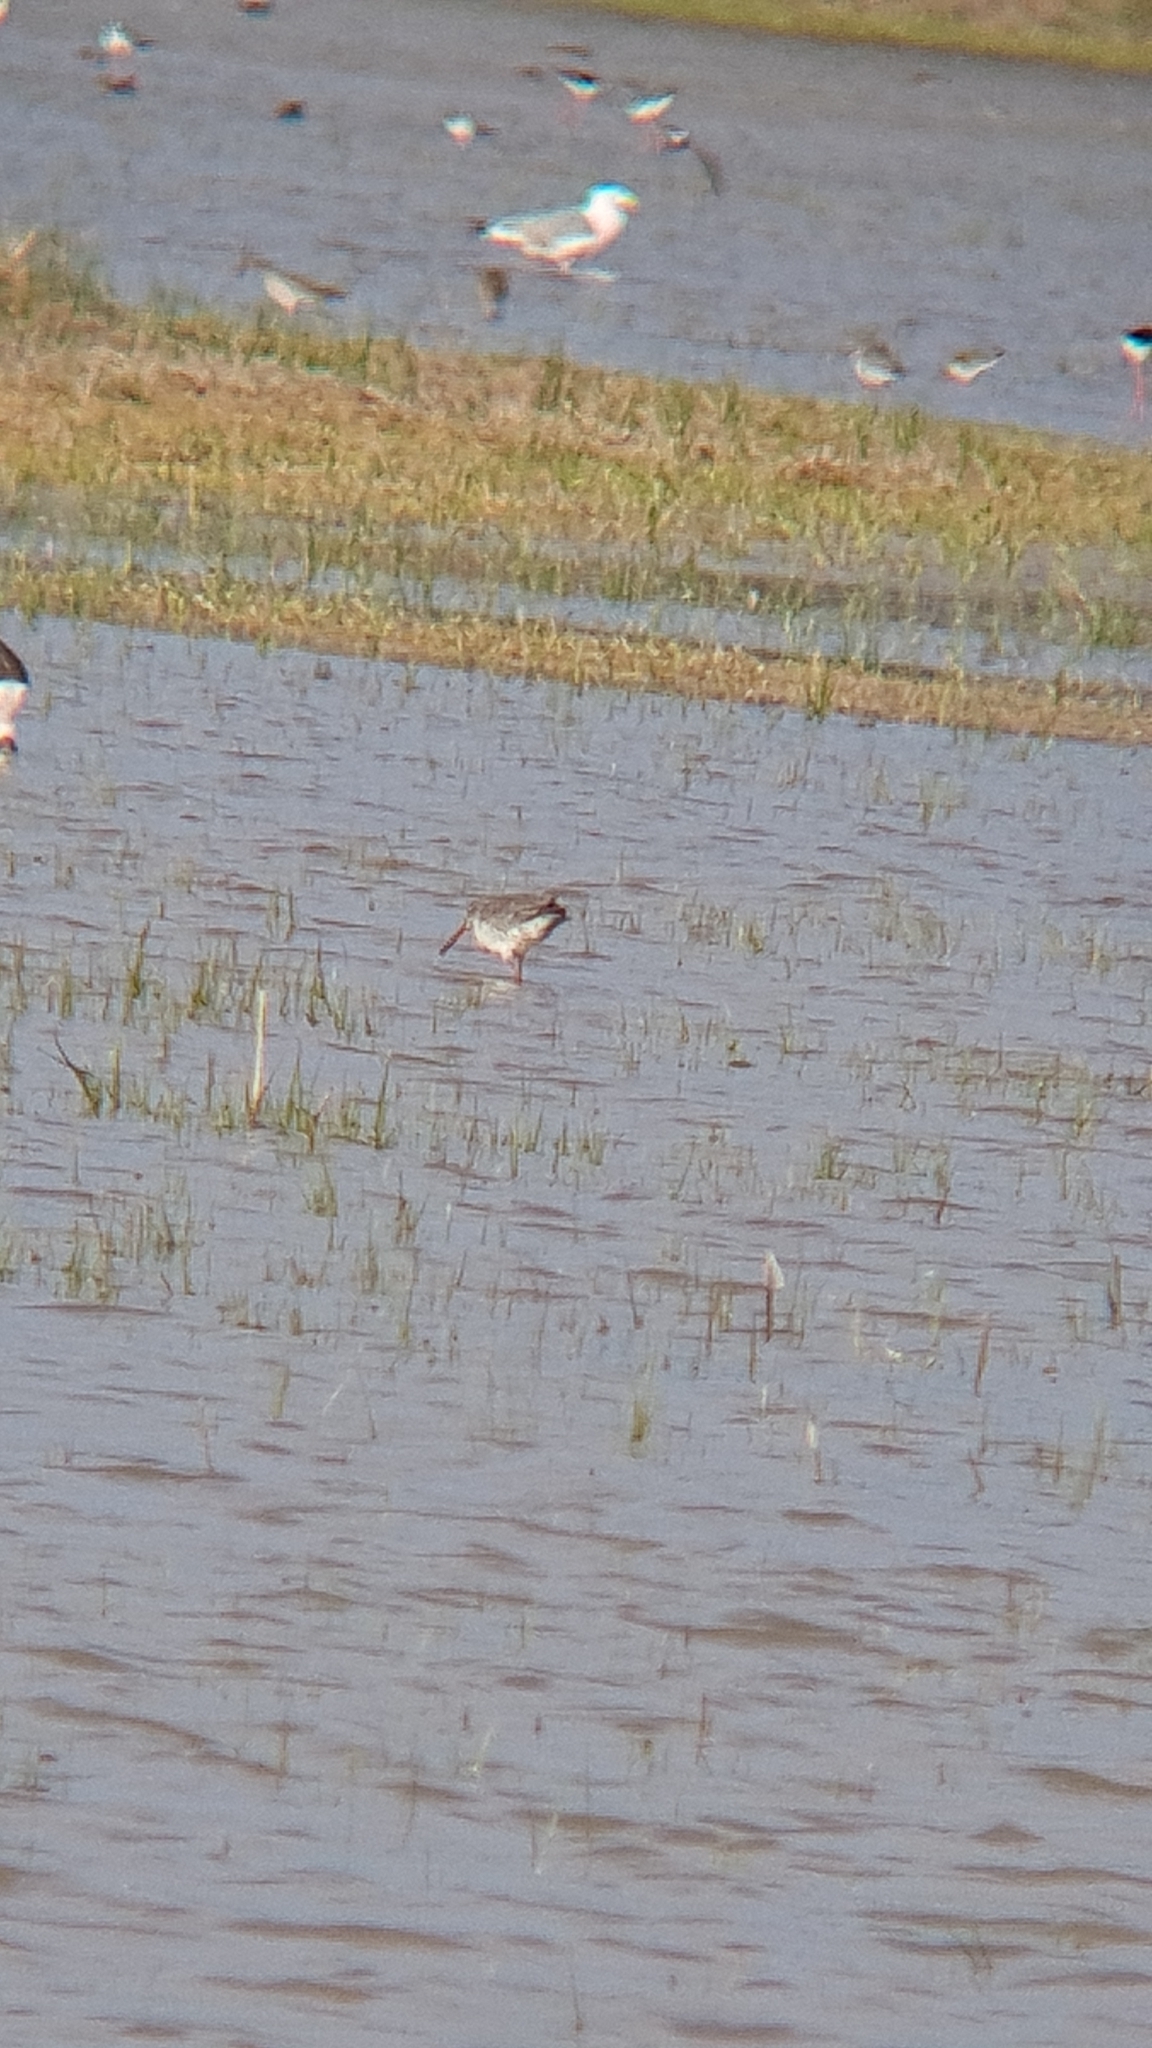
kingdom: Animalia
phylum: Chordata
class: Aves
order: Charadriiformes
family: Scolopacidae
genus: Tringa
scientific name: Tringa erythropus
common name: Spotted redshank
